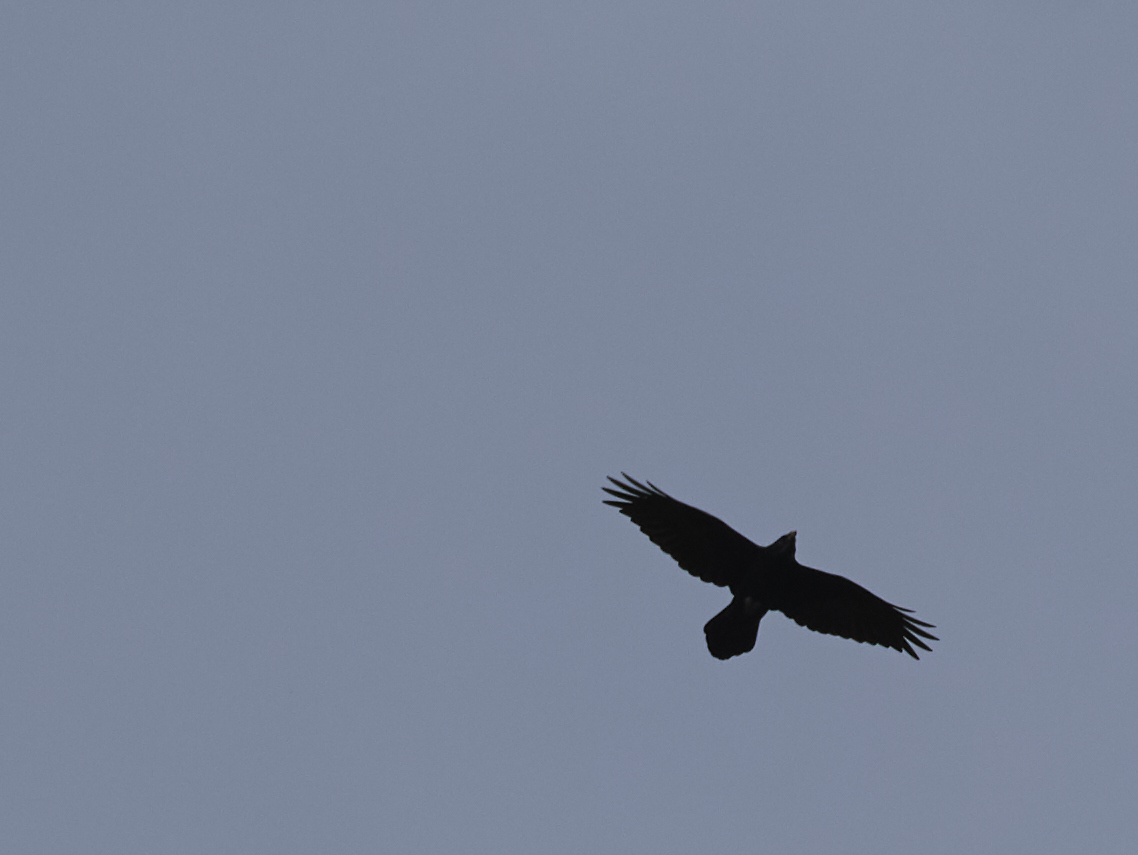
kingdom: Animalia
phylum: Chordata
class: Aves
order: Passeriformes
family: Corvidae
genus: Corvus
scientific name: Corvus corax
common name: Common raven
